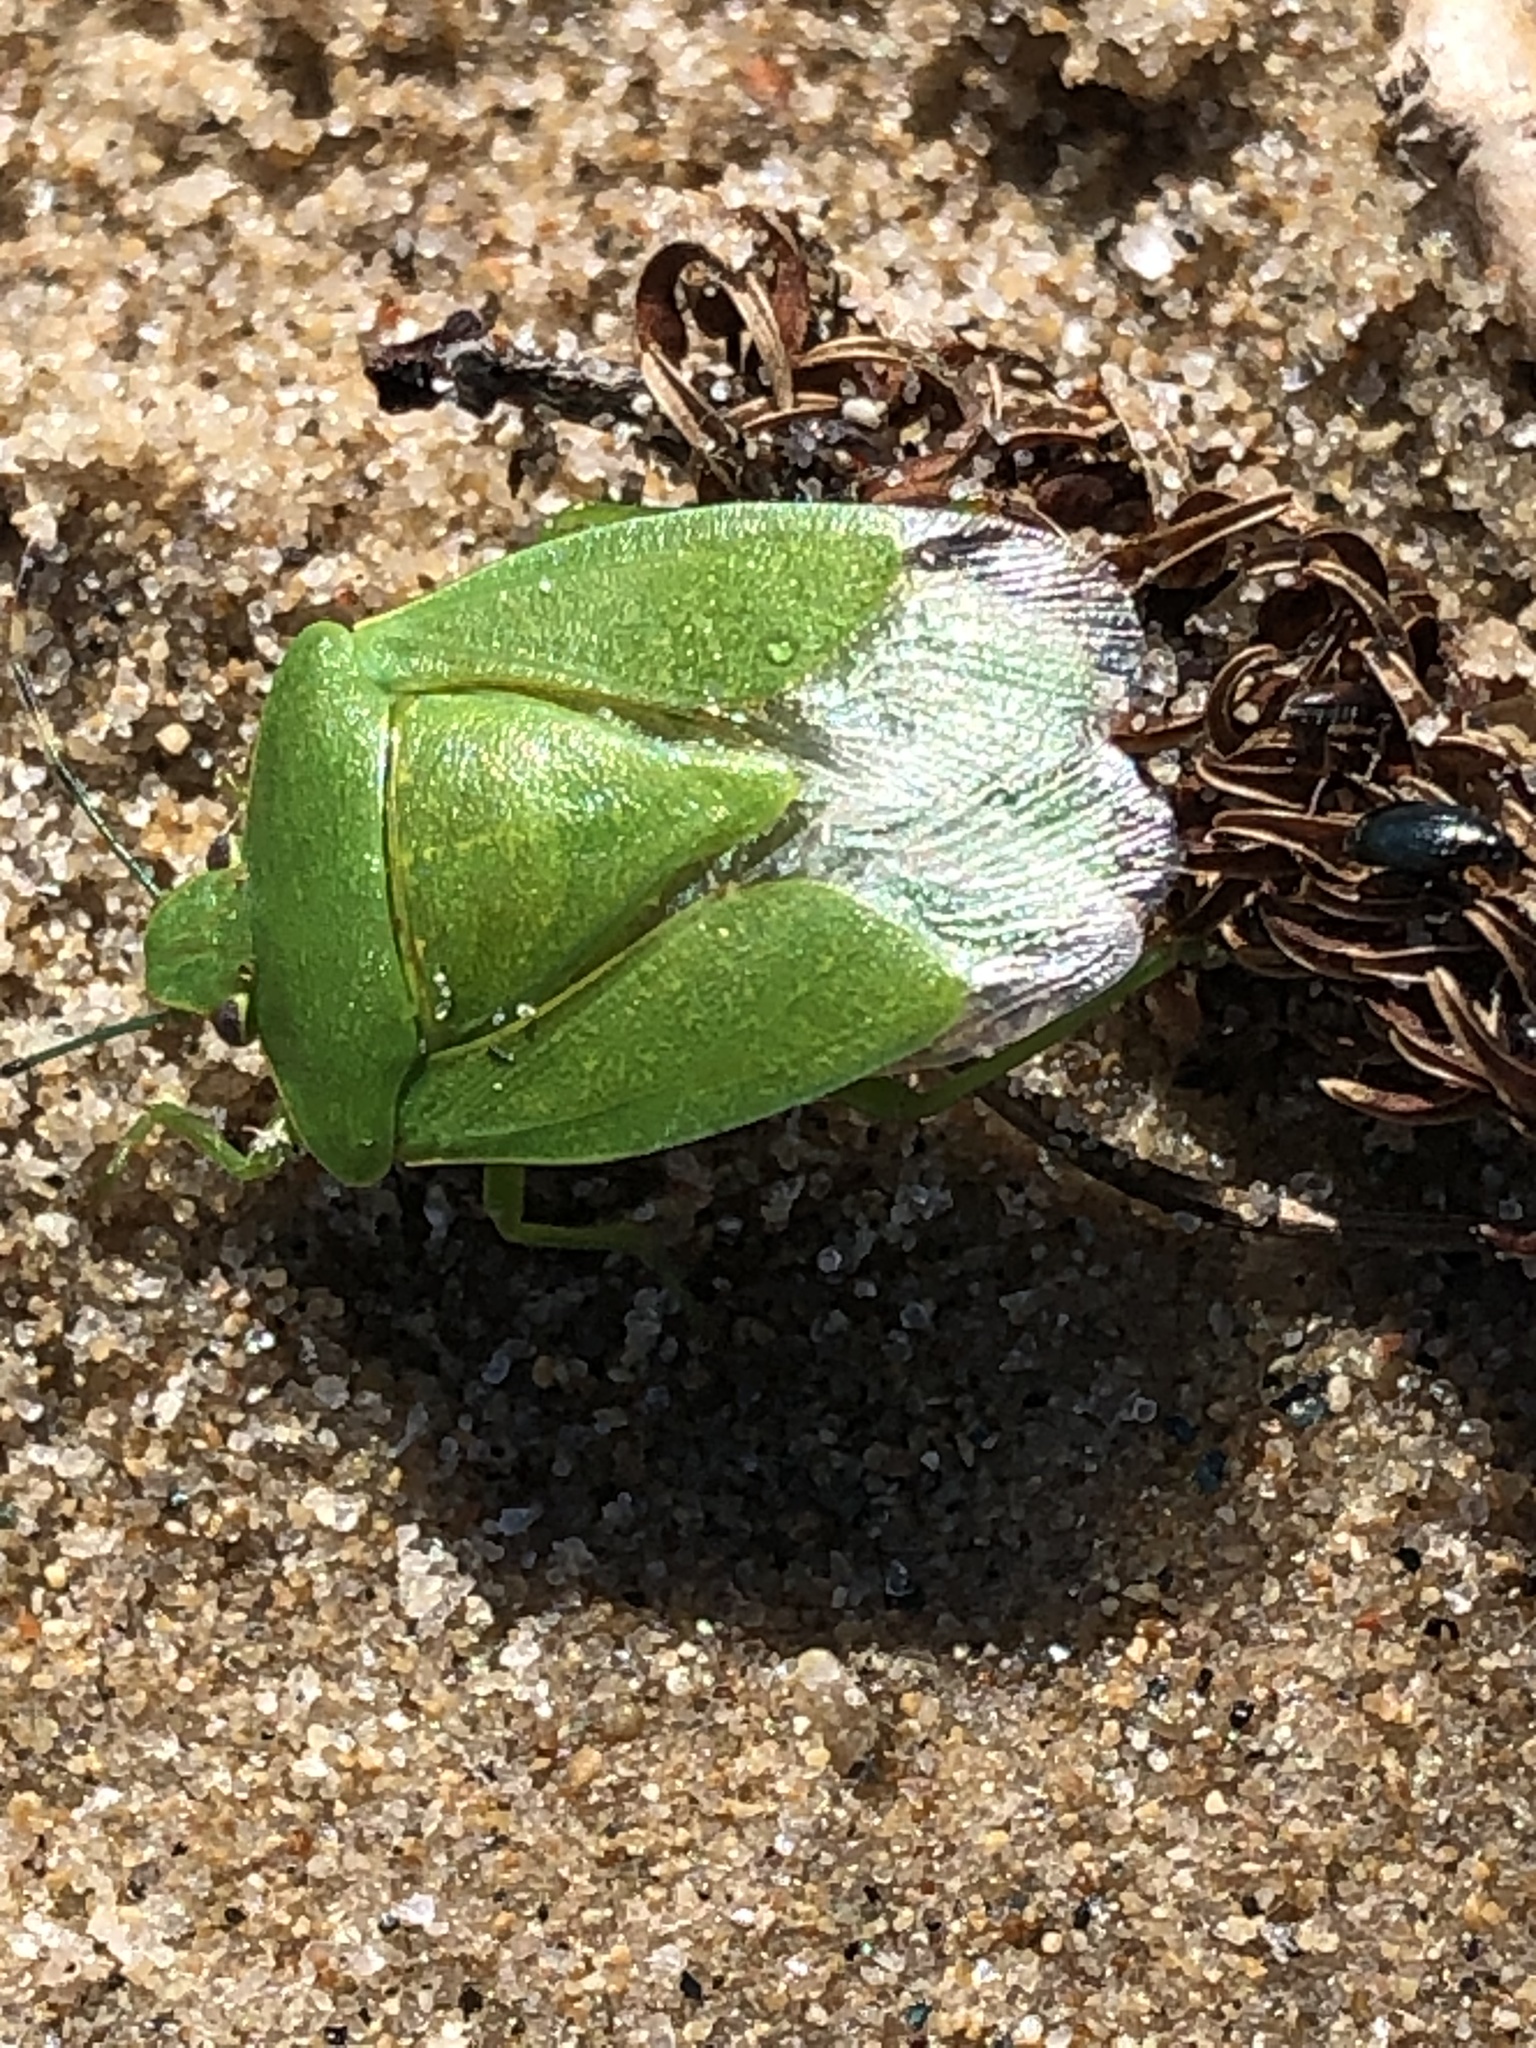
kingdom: Animalia
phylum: Arthropoda
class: Insecta
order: Hemiptera
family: Pentatomidae
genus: Chinavia
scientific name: Chinavia hilaris
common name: Green stink bug
